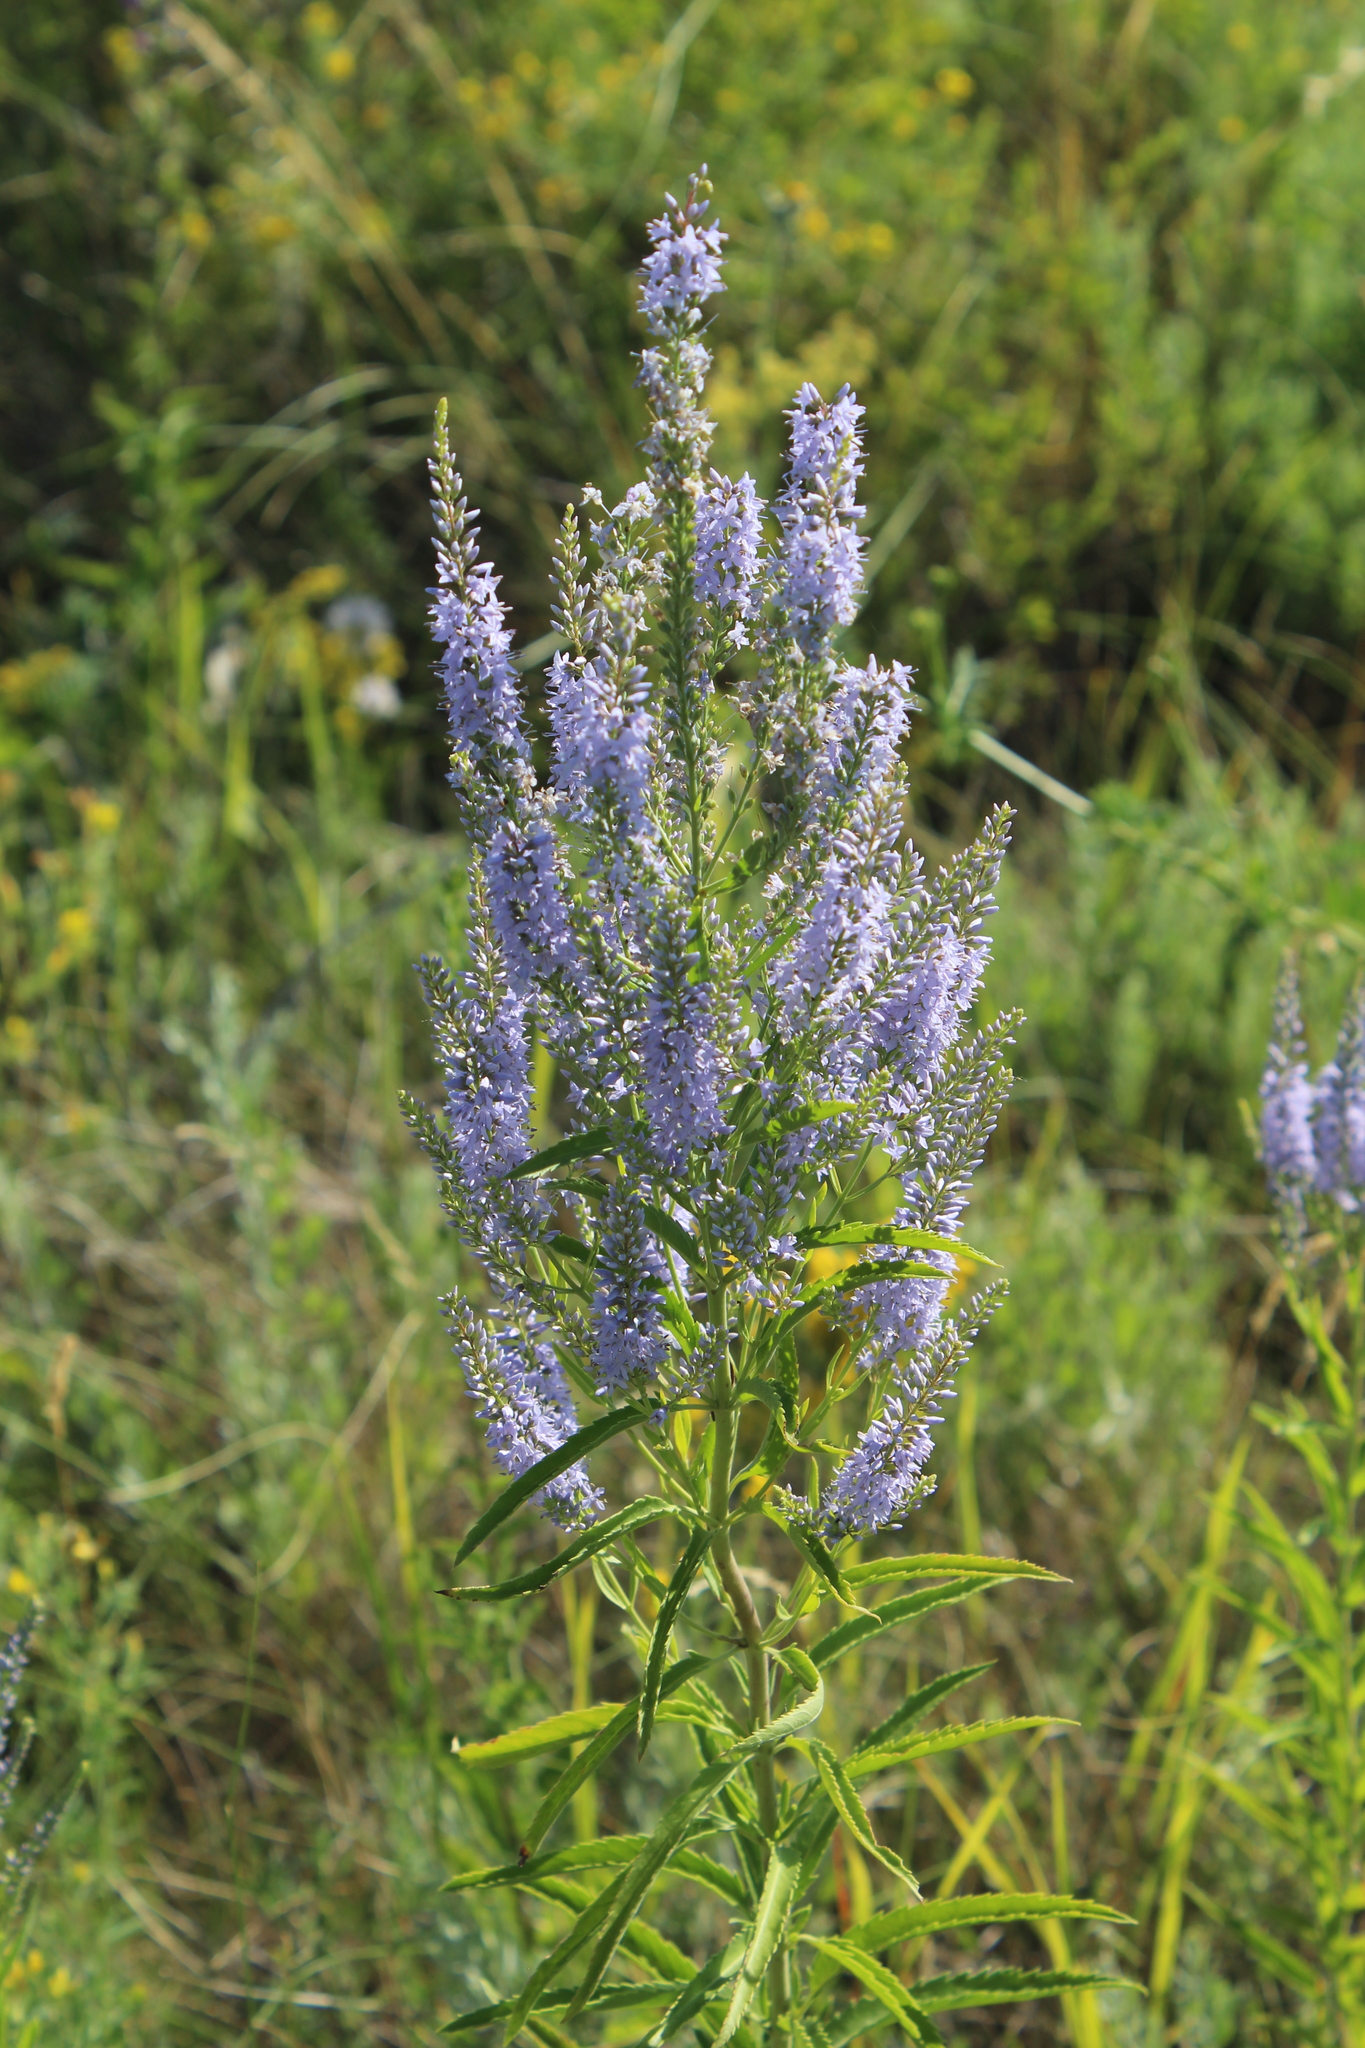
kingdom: Plantae
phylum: Tracheophyta
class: Magnoliopsida
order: Lamiales
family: Plantaginaceae
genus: Veronica
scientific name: Veronica longifolia
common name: Garden speedwell
